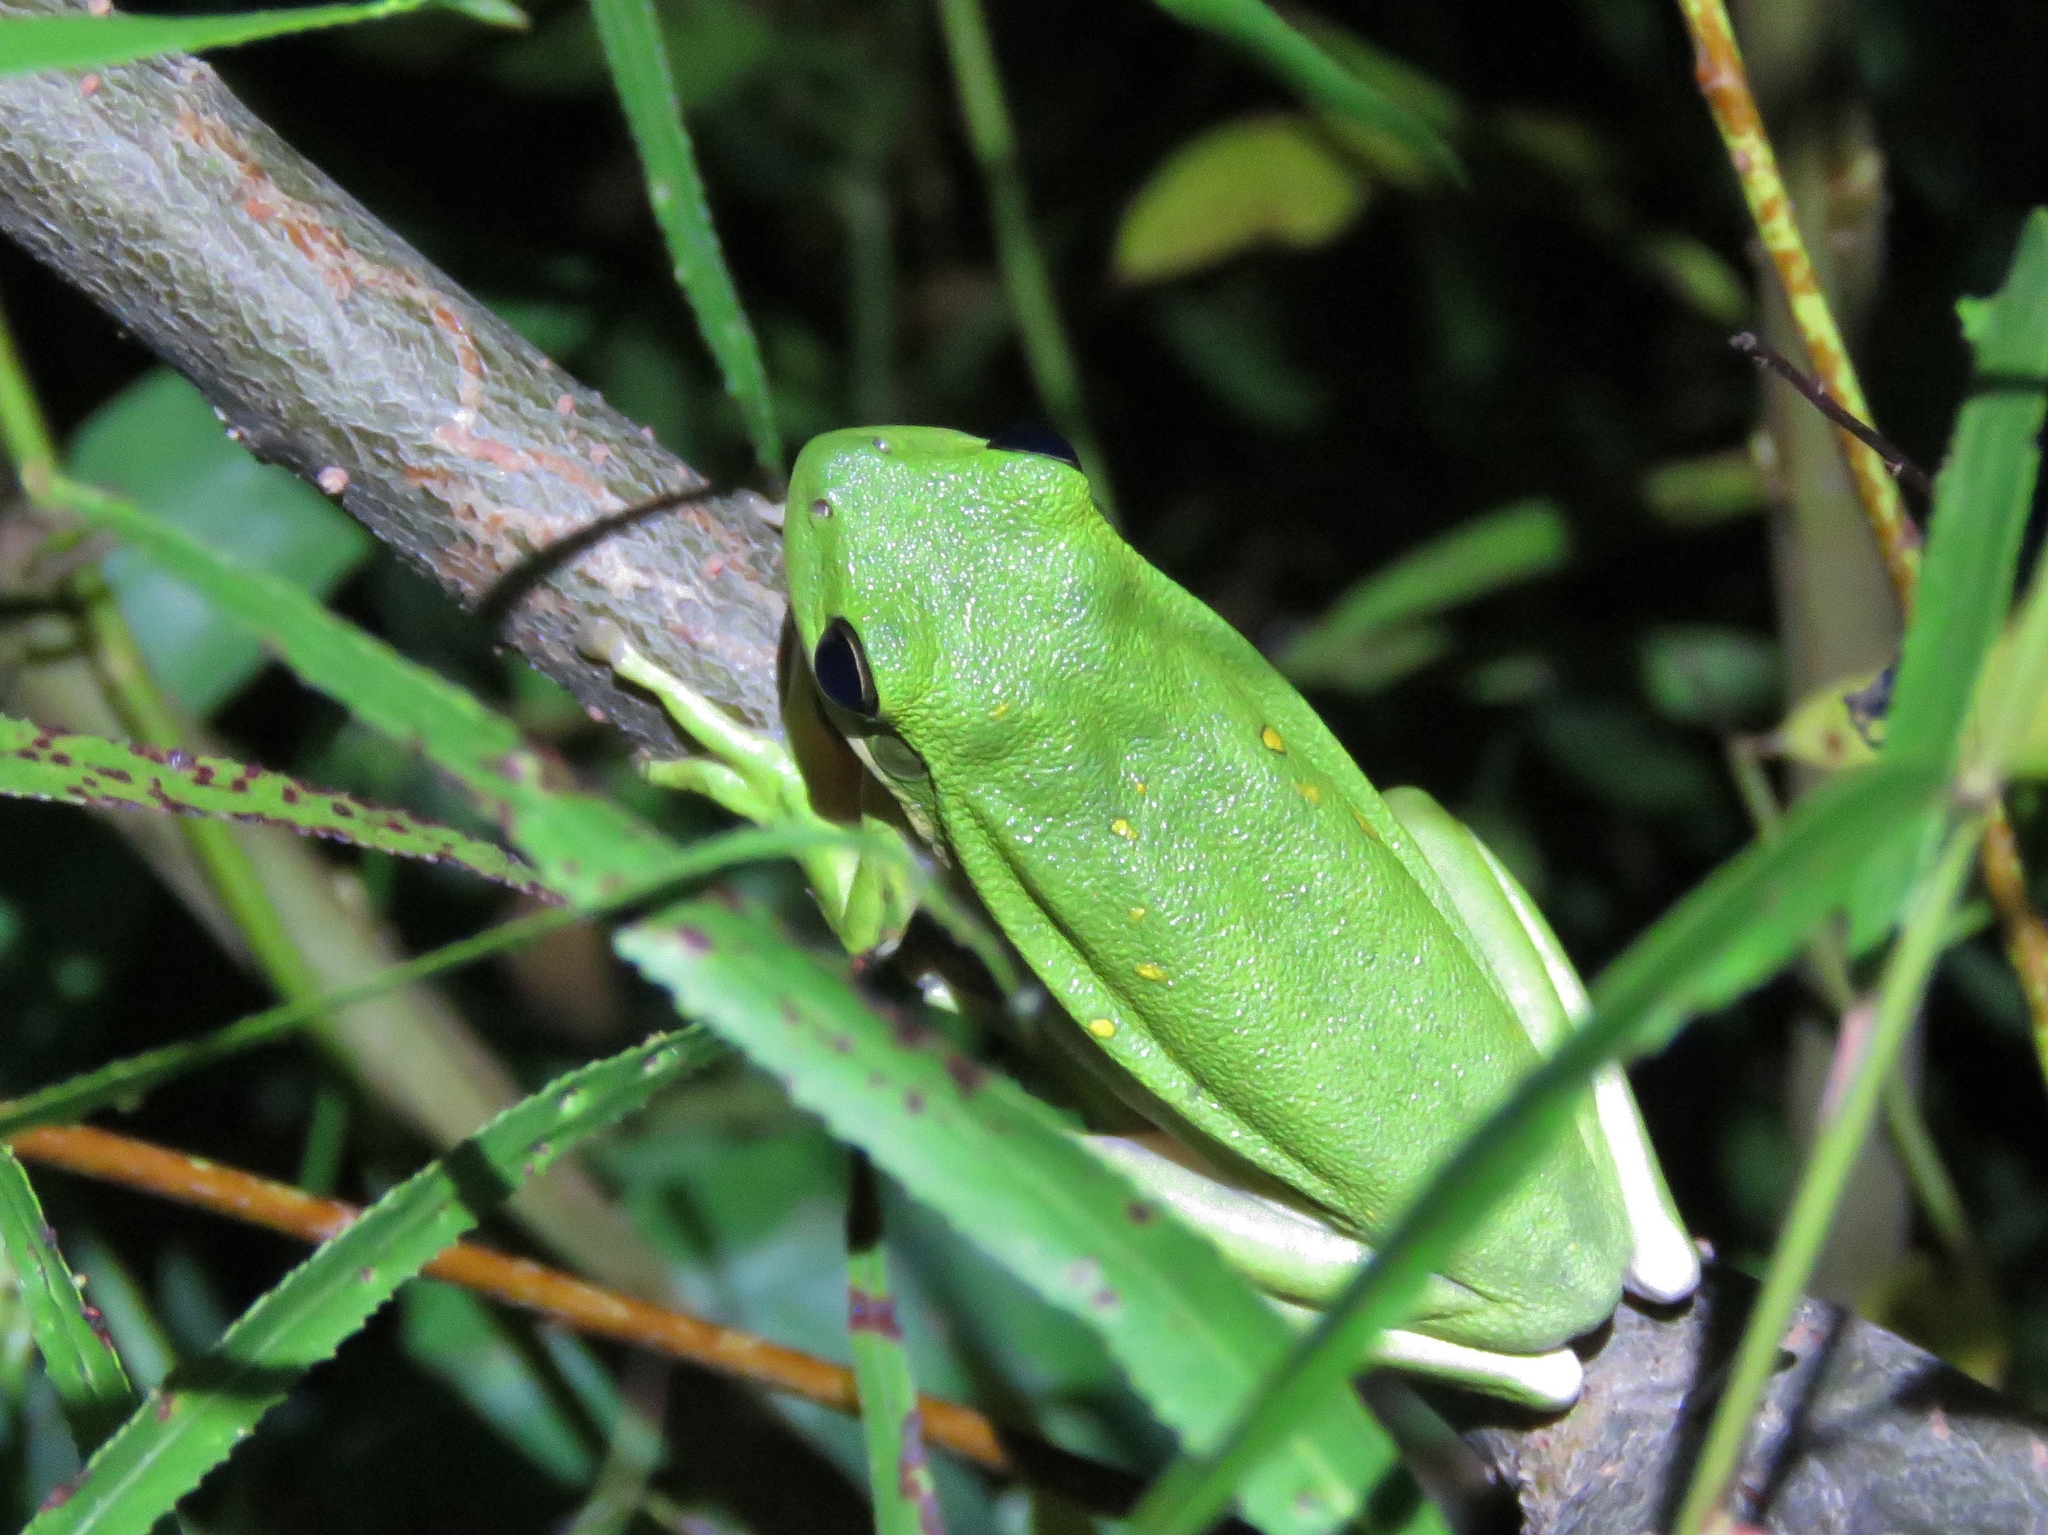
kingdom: Animalia
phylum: Chordata
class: Amphibia
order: Anura
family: Hylidae
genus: Dryophytes
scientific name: Dryophytes cinereus
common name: Green treefrog
